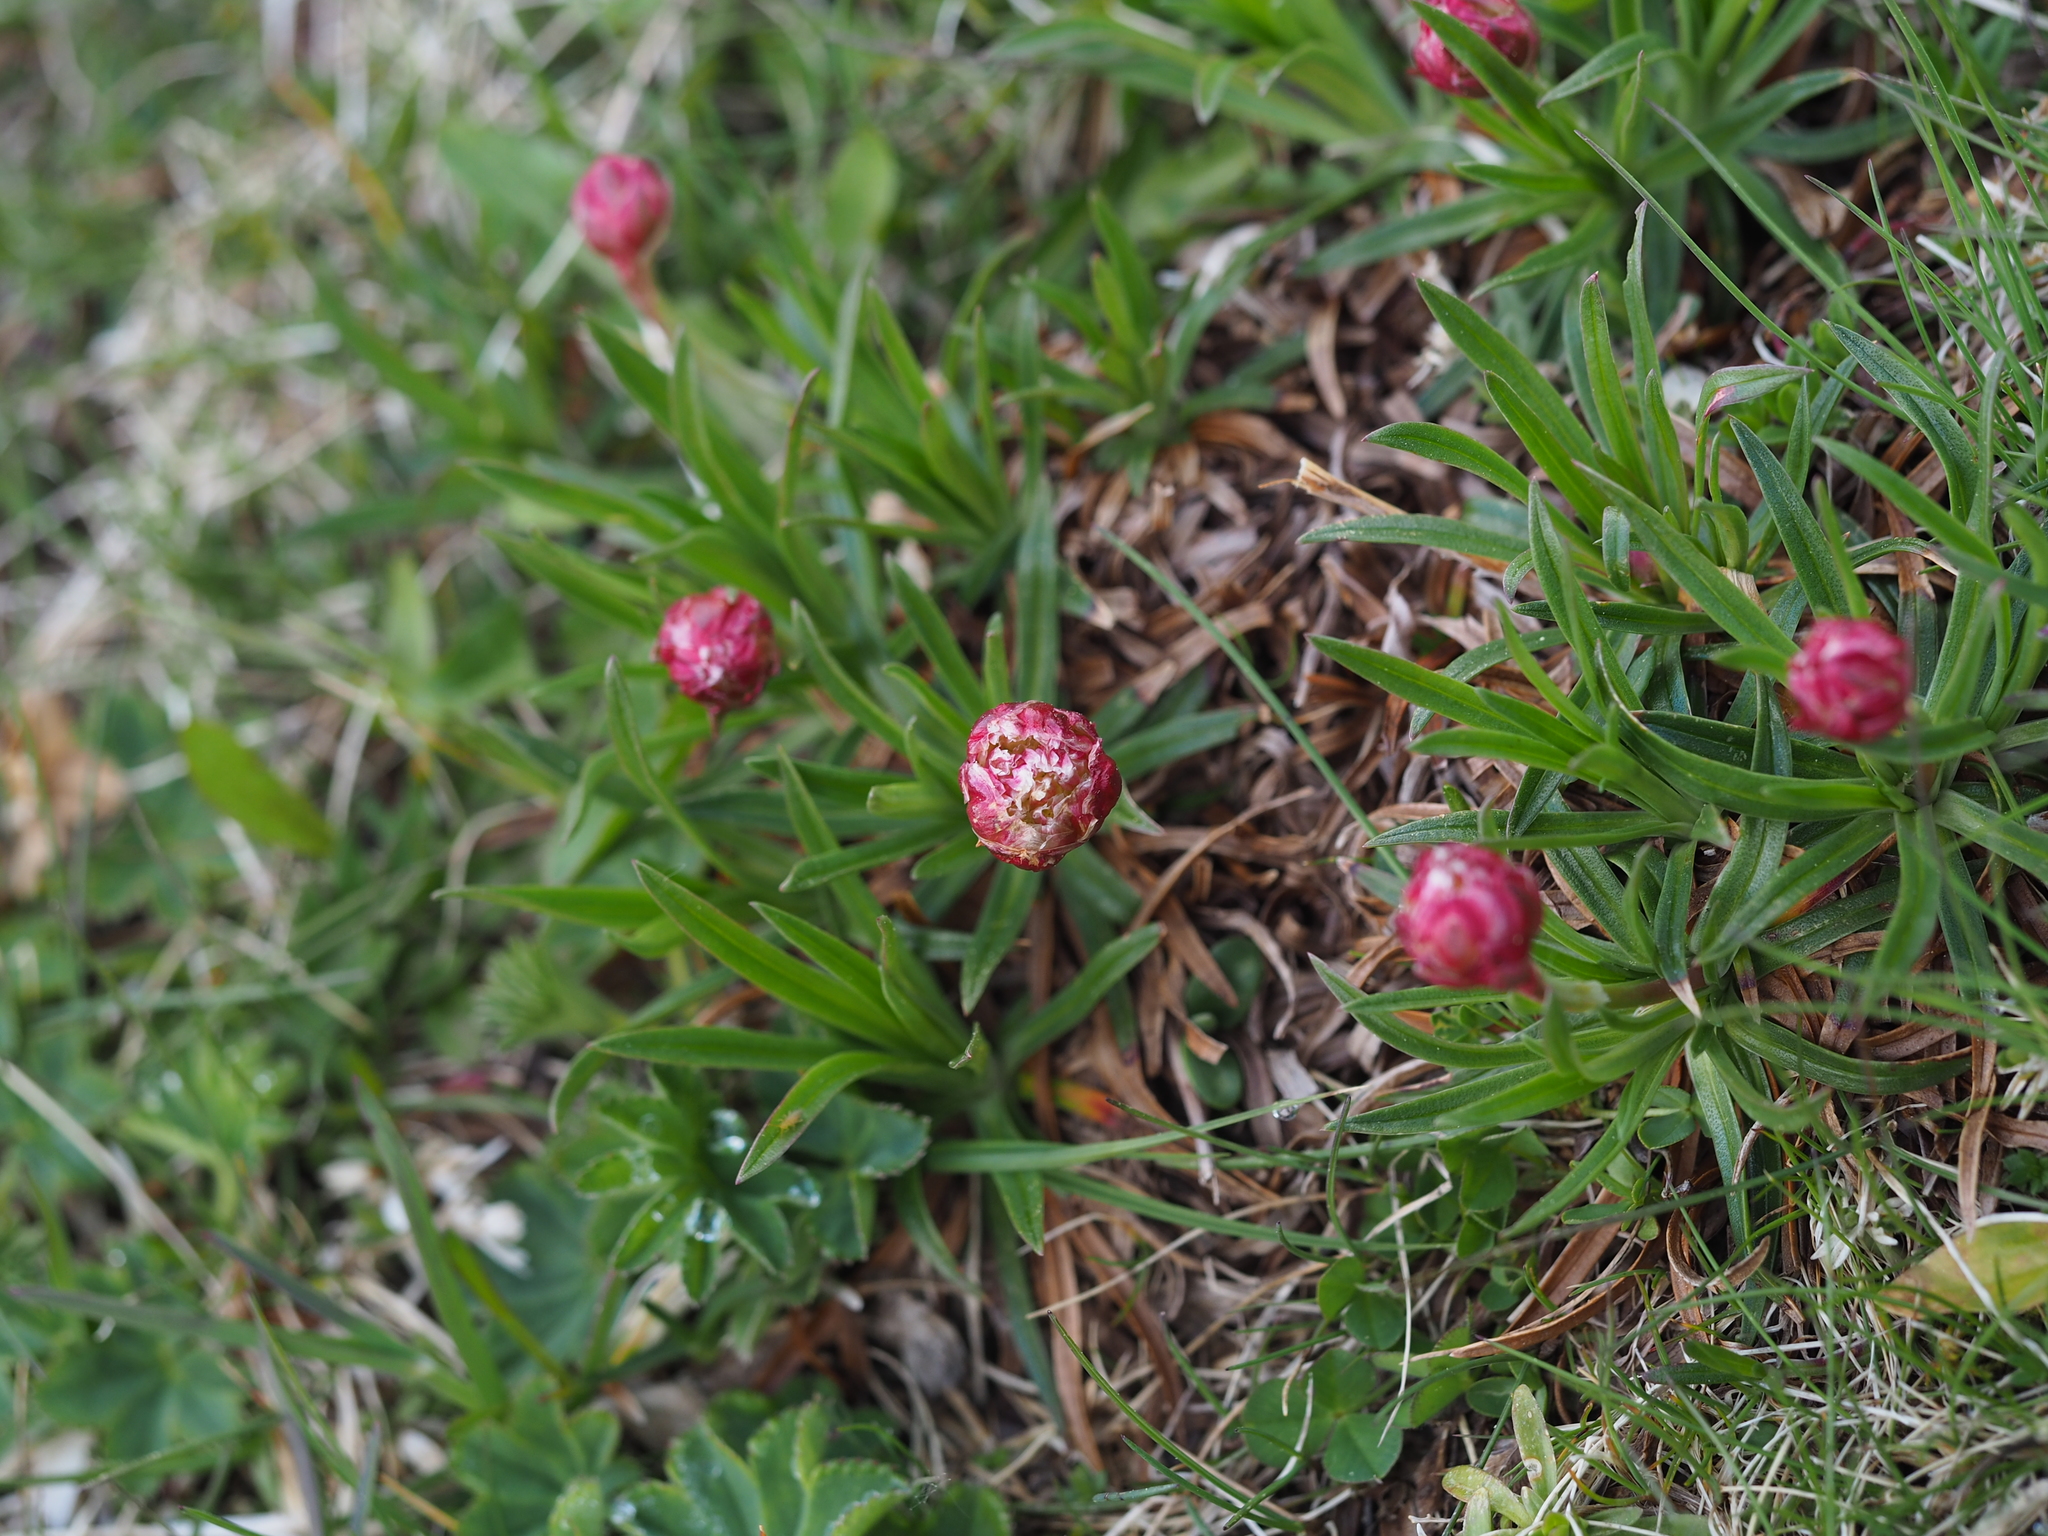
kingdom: Plantae
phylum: Tracheophyta
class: Magnoliopsida
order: Caryophyllales
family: Plumbaginaceae
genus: Armeria
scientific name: Armeria alpina
